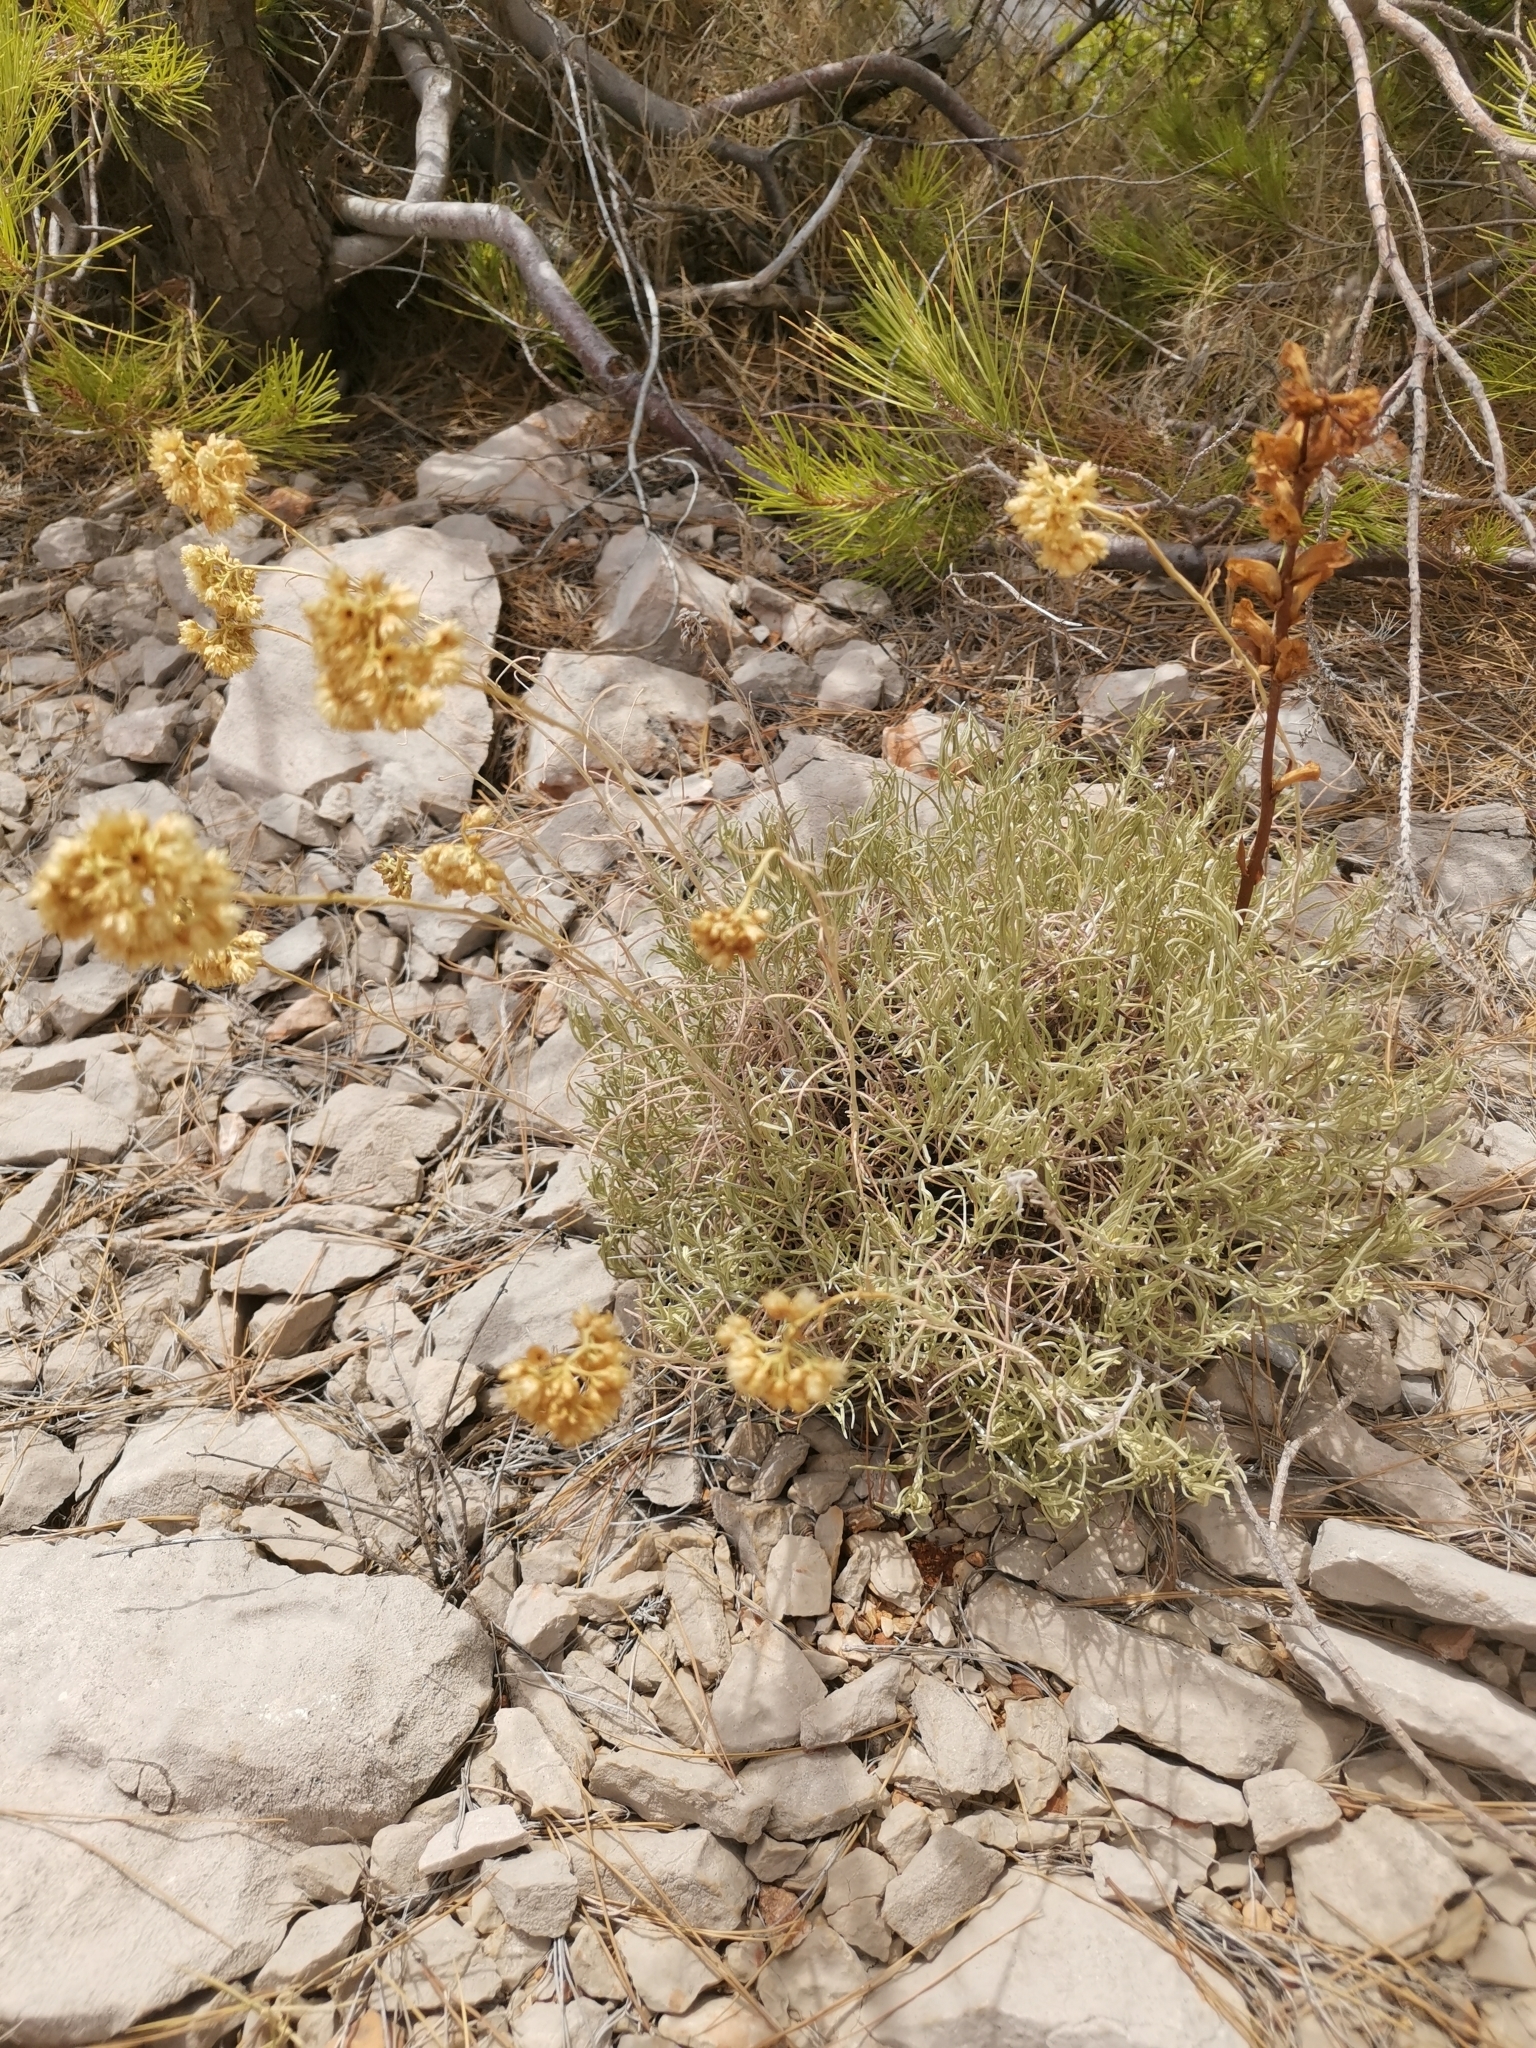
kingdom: Plantae
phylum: Tracheophyta
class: Magnoliopsida
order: Asterales
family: Asteraceae
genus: Helichrysum
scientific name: Helichrysum italicum
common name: Curryplant
